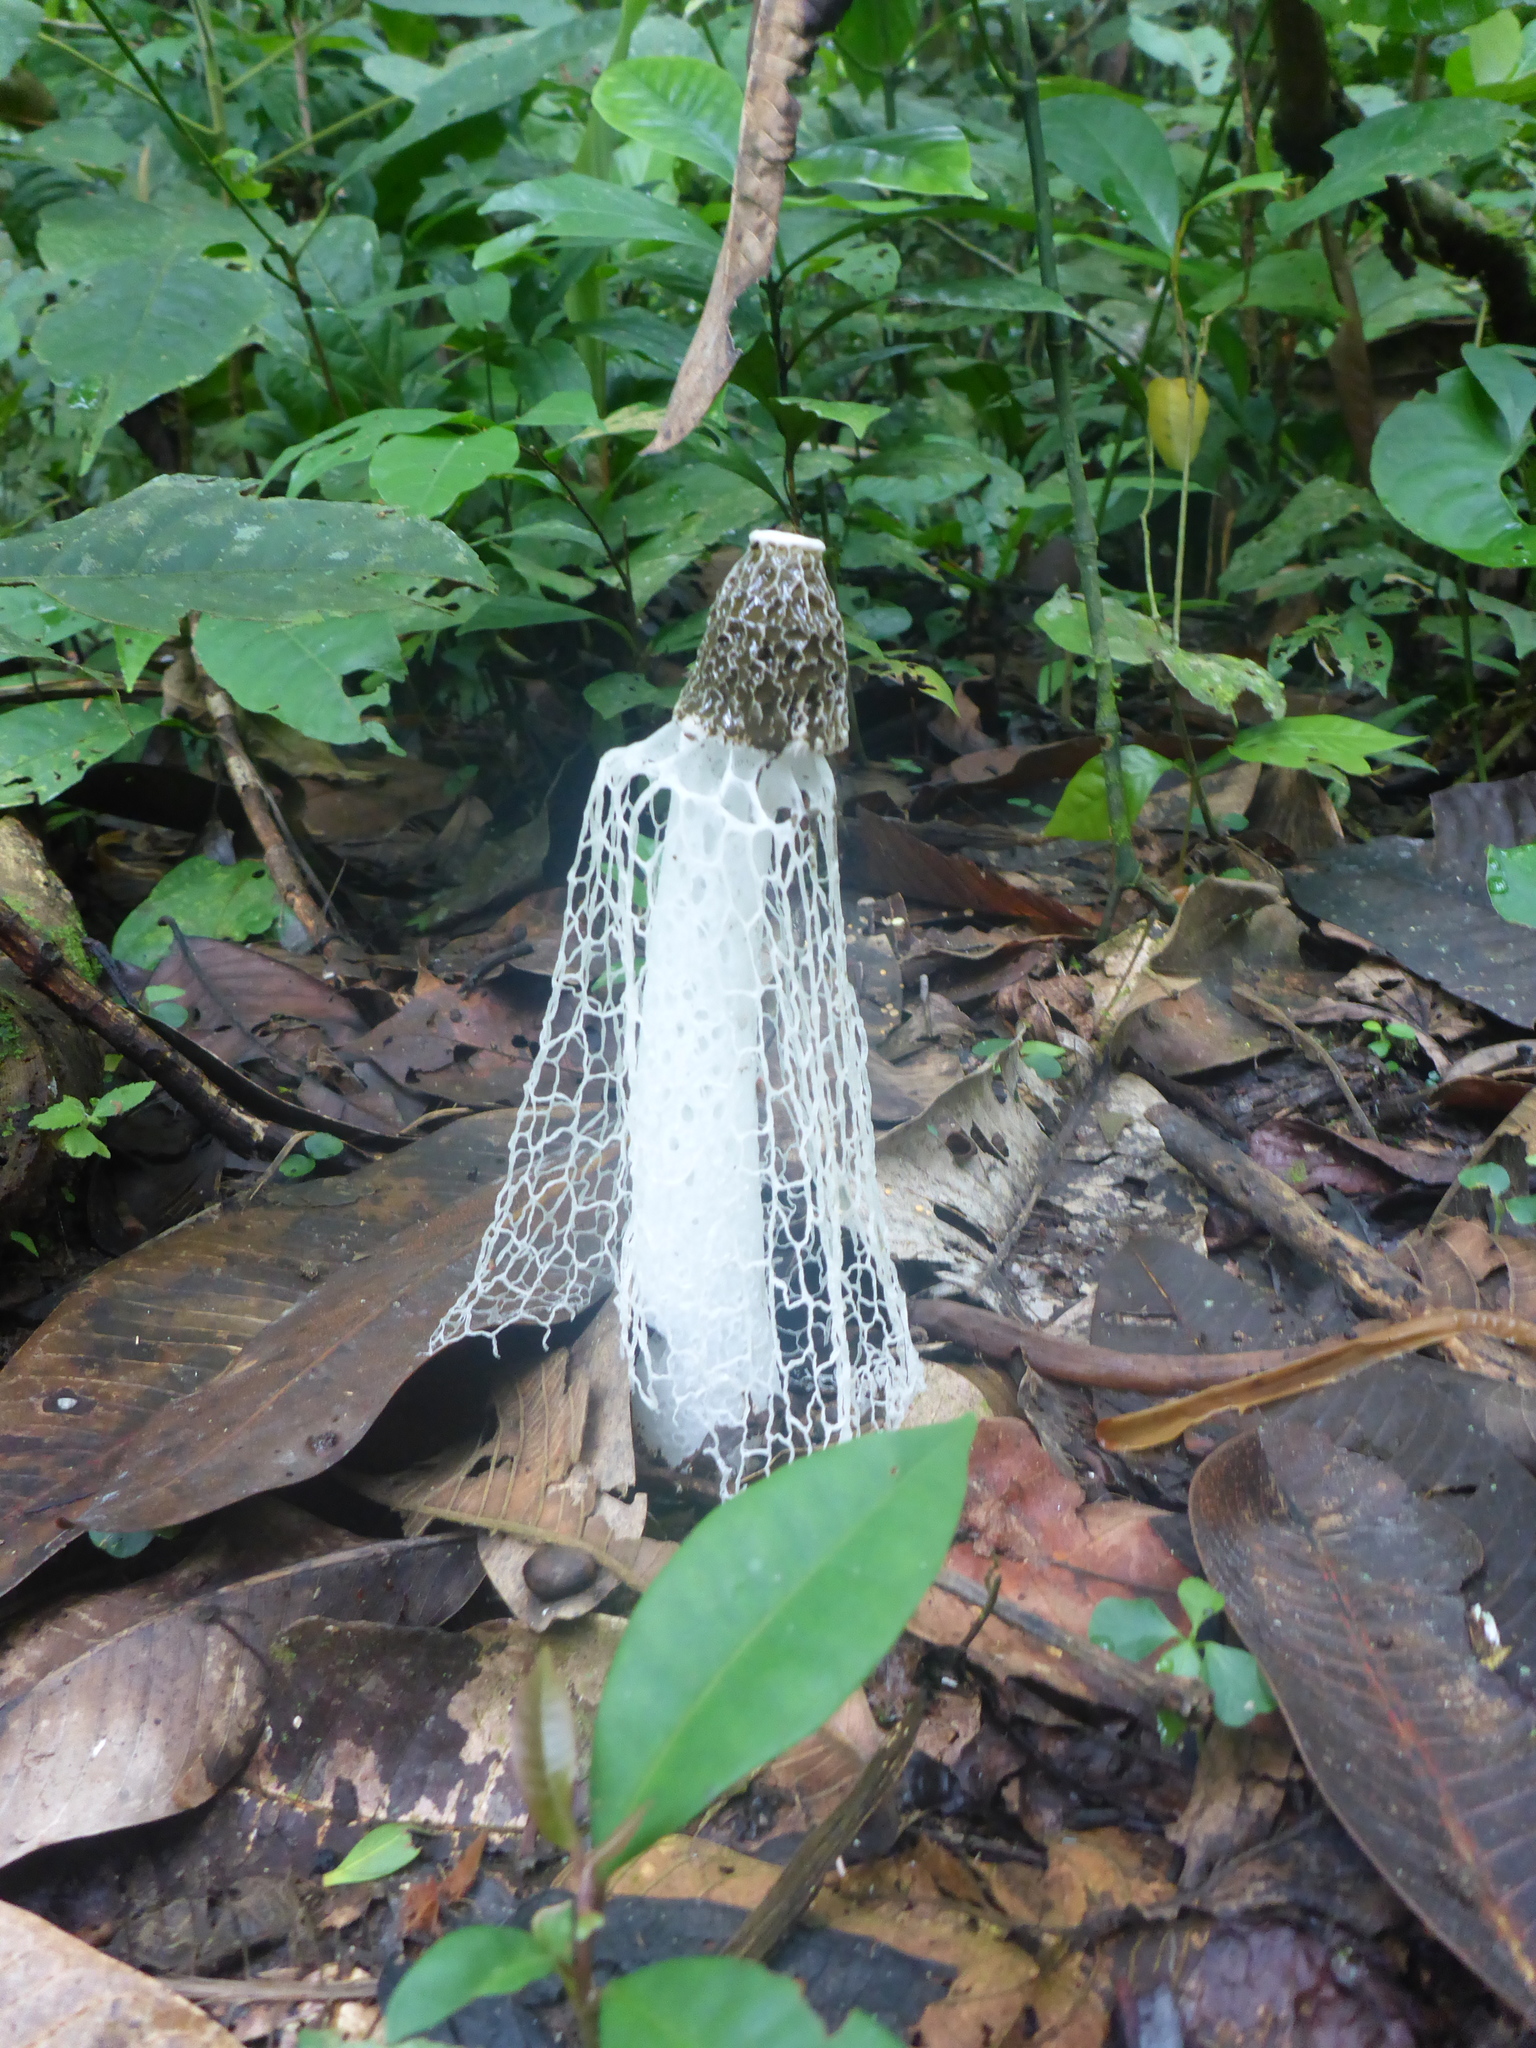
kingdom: Fungi
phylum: Basidiomycota
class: Agaricomycetes
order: Phallales
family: Phallaceae
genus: Phallus
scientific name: Phallus indusiatus
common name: Bridal veil stinkhorn
